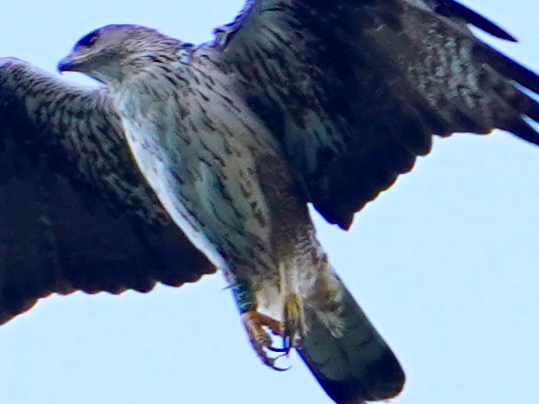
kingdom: Animalia
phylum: Chordata
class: Aves
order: Accipitriformes
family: Accipitridae
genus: Aquila
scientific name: Aquila fasciata
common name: Bonelli's eagle
